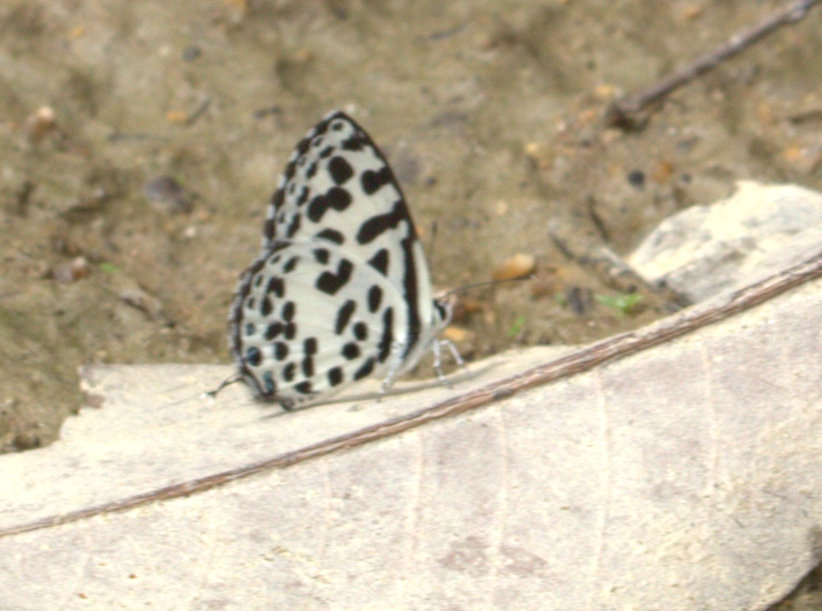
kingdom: Animalia
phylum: Arthropoda
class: Insecta
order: Lepidoptera
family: Lycaenidae
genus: Castalius
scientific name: Castalius rosimon
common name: Common pierrot
